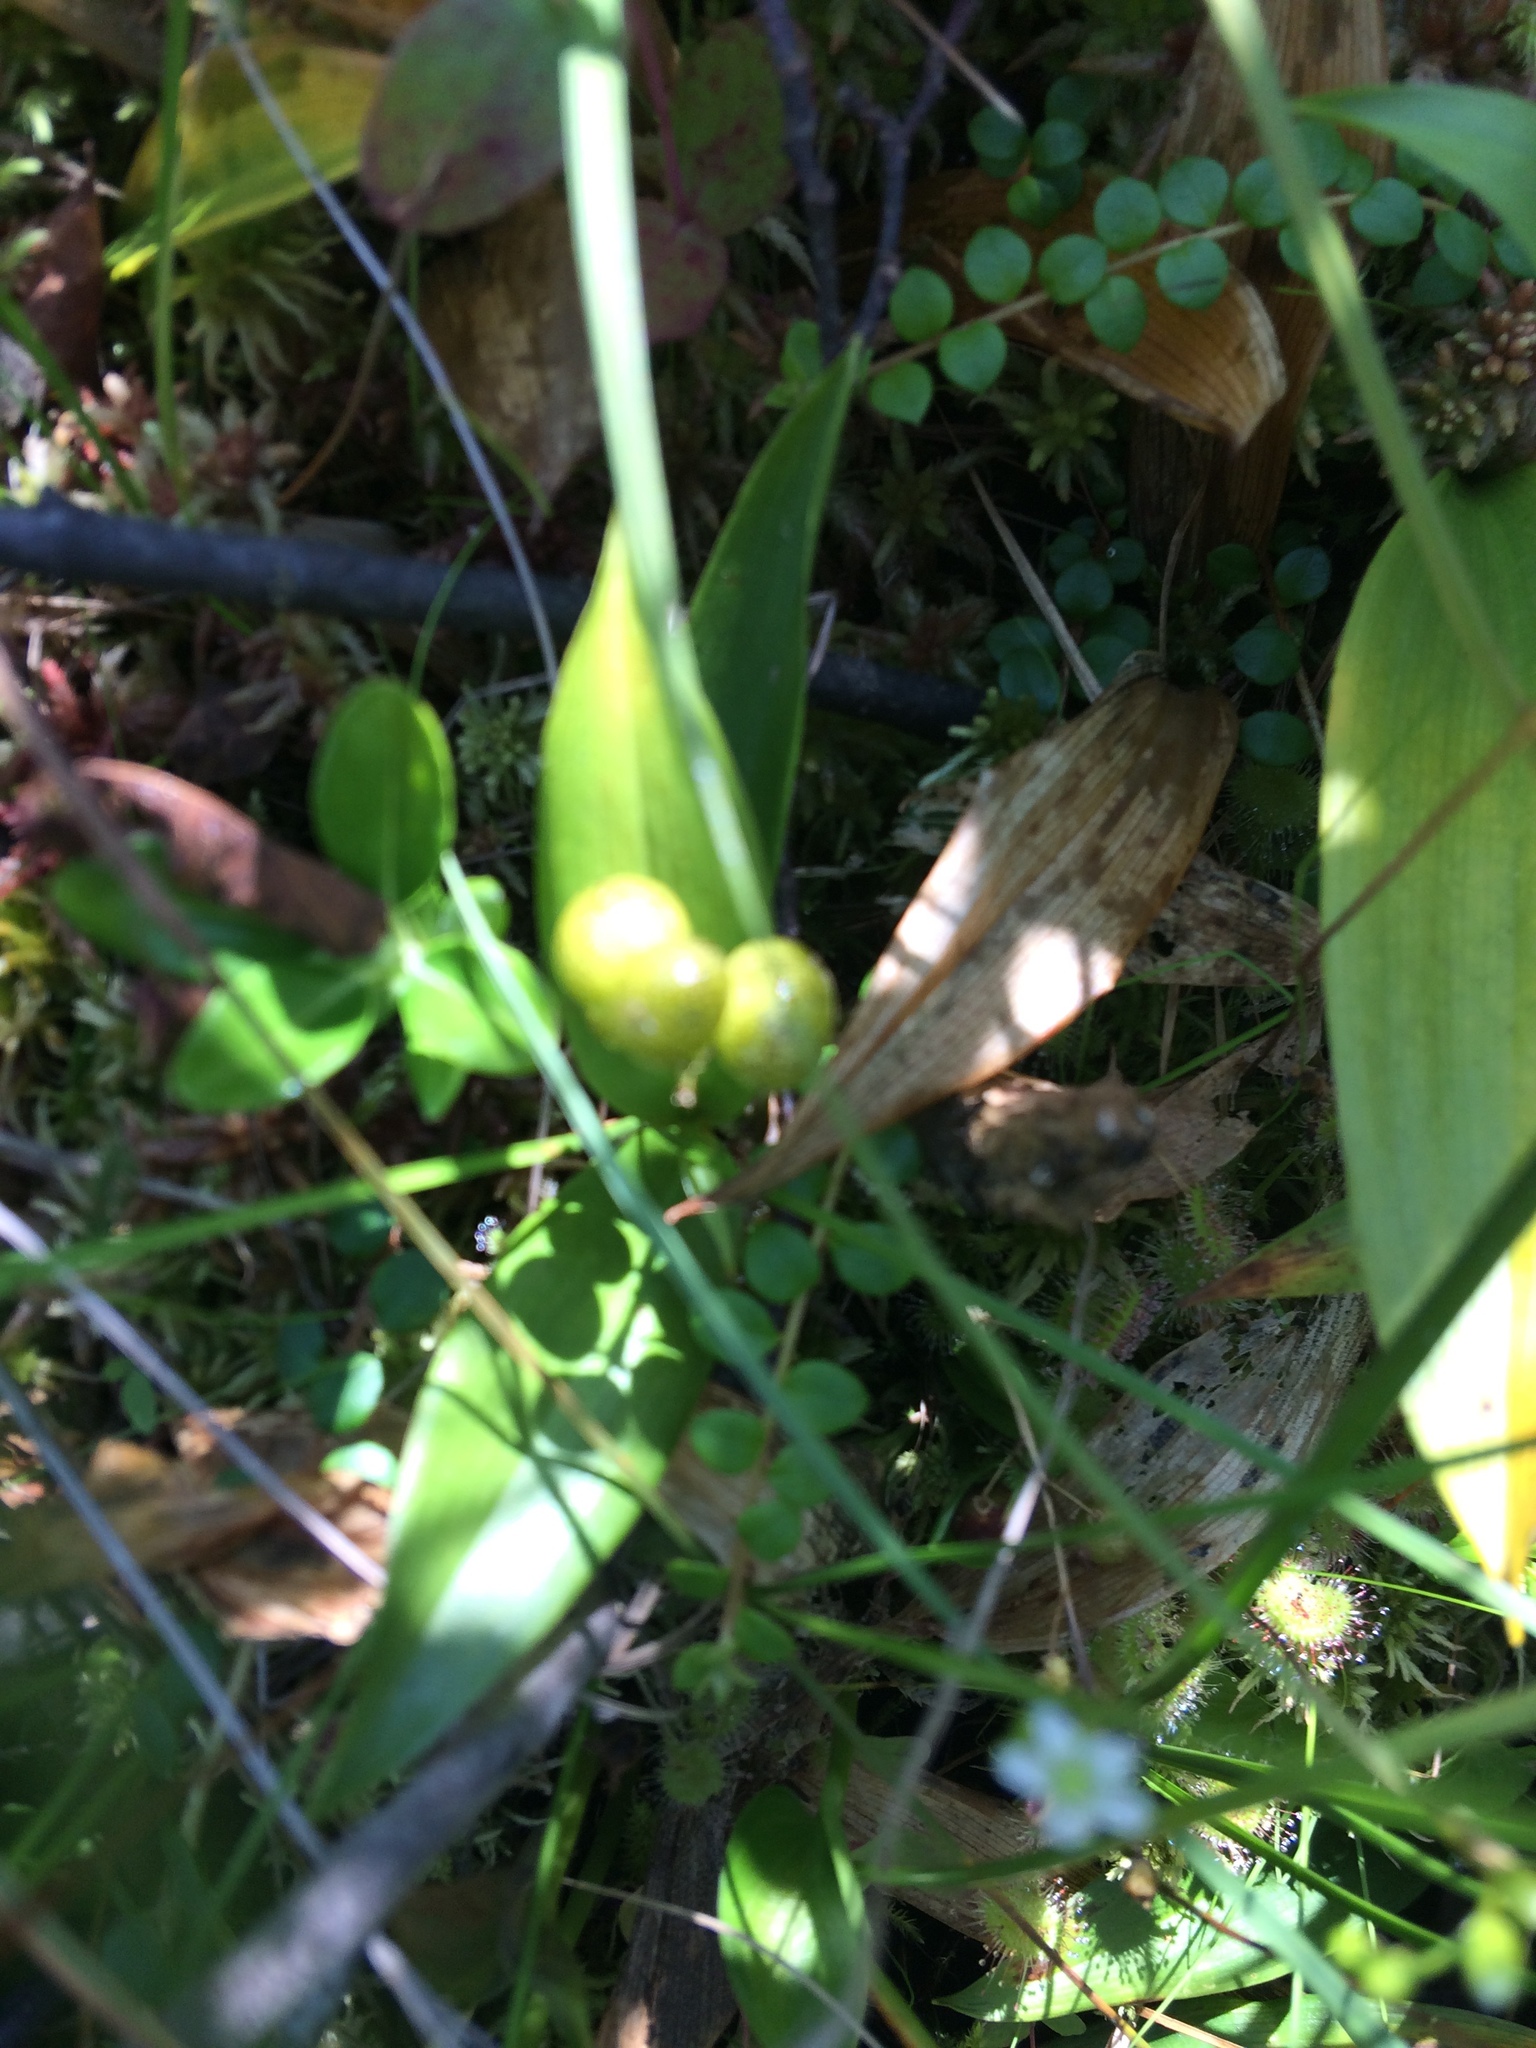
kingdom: Plantae
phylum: Tracheophyta
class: Liliopsida
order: Asparagales
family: Asparagaceae
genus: Maianthemum
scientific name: Maianthemum trifolium
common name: Swamp false solomon's seal
